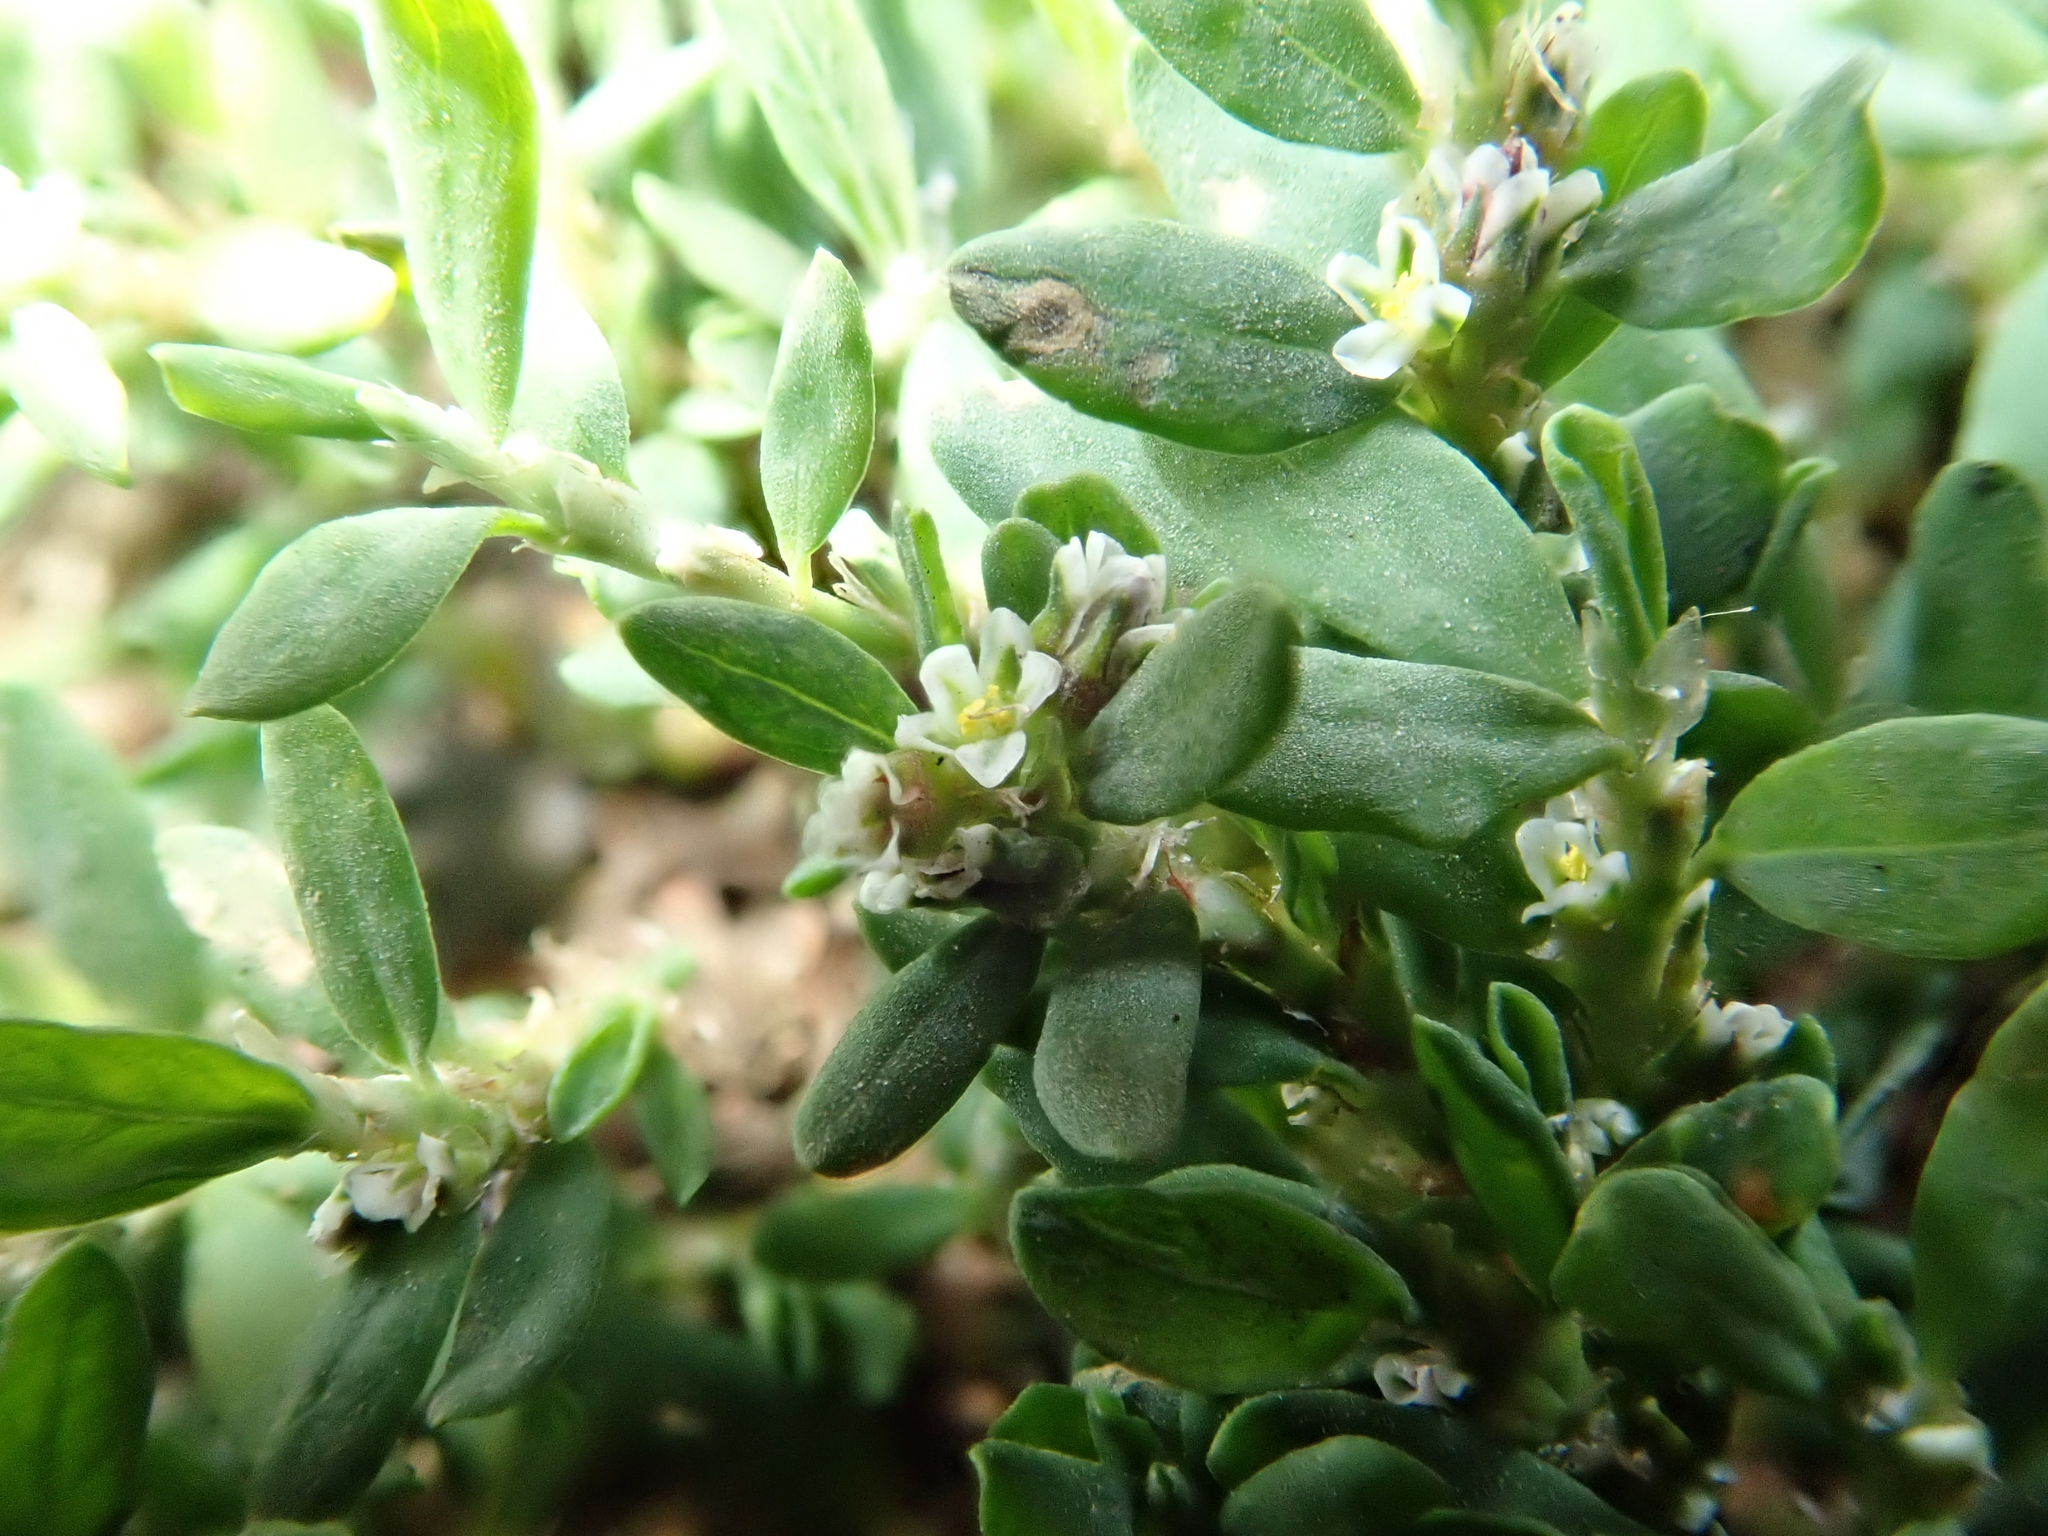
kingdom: Plantae
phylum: Tracheophyta
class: Magnoliopsida
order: Caryophyllales
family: Polygonaceae
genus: Polygonum
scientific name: Polygonum aviculare
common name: Prostrate knotweed
